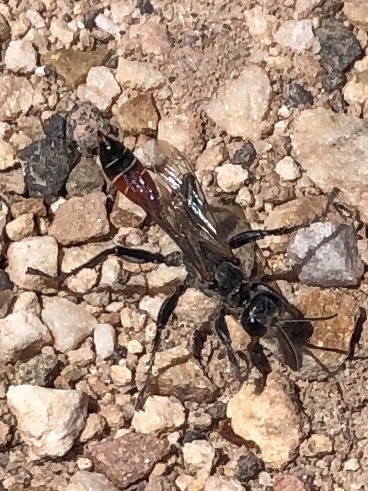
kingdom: Animalia
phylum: Arthropoda
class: Insecta
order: Hymenoptera
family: Sphecidae
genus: Prionyx
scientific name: Prionyx kirbii
